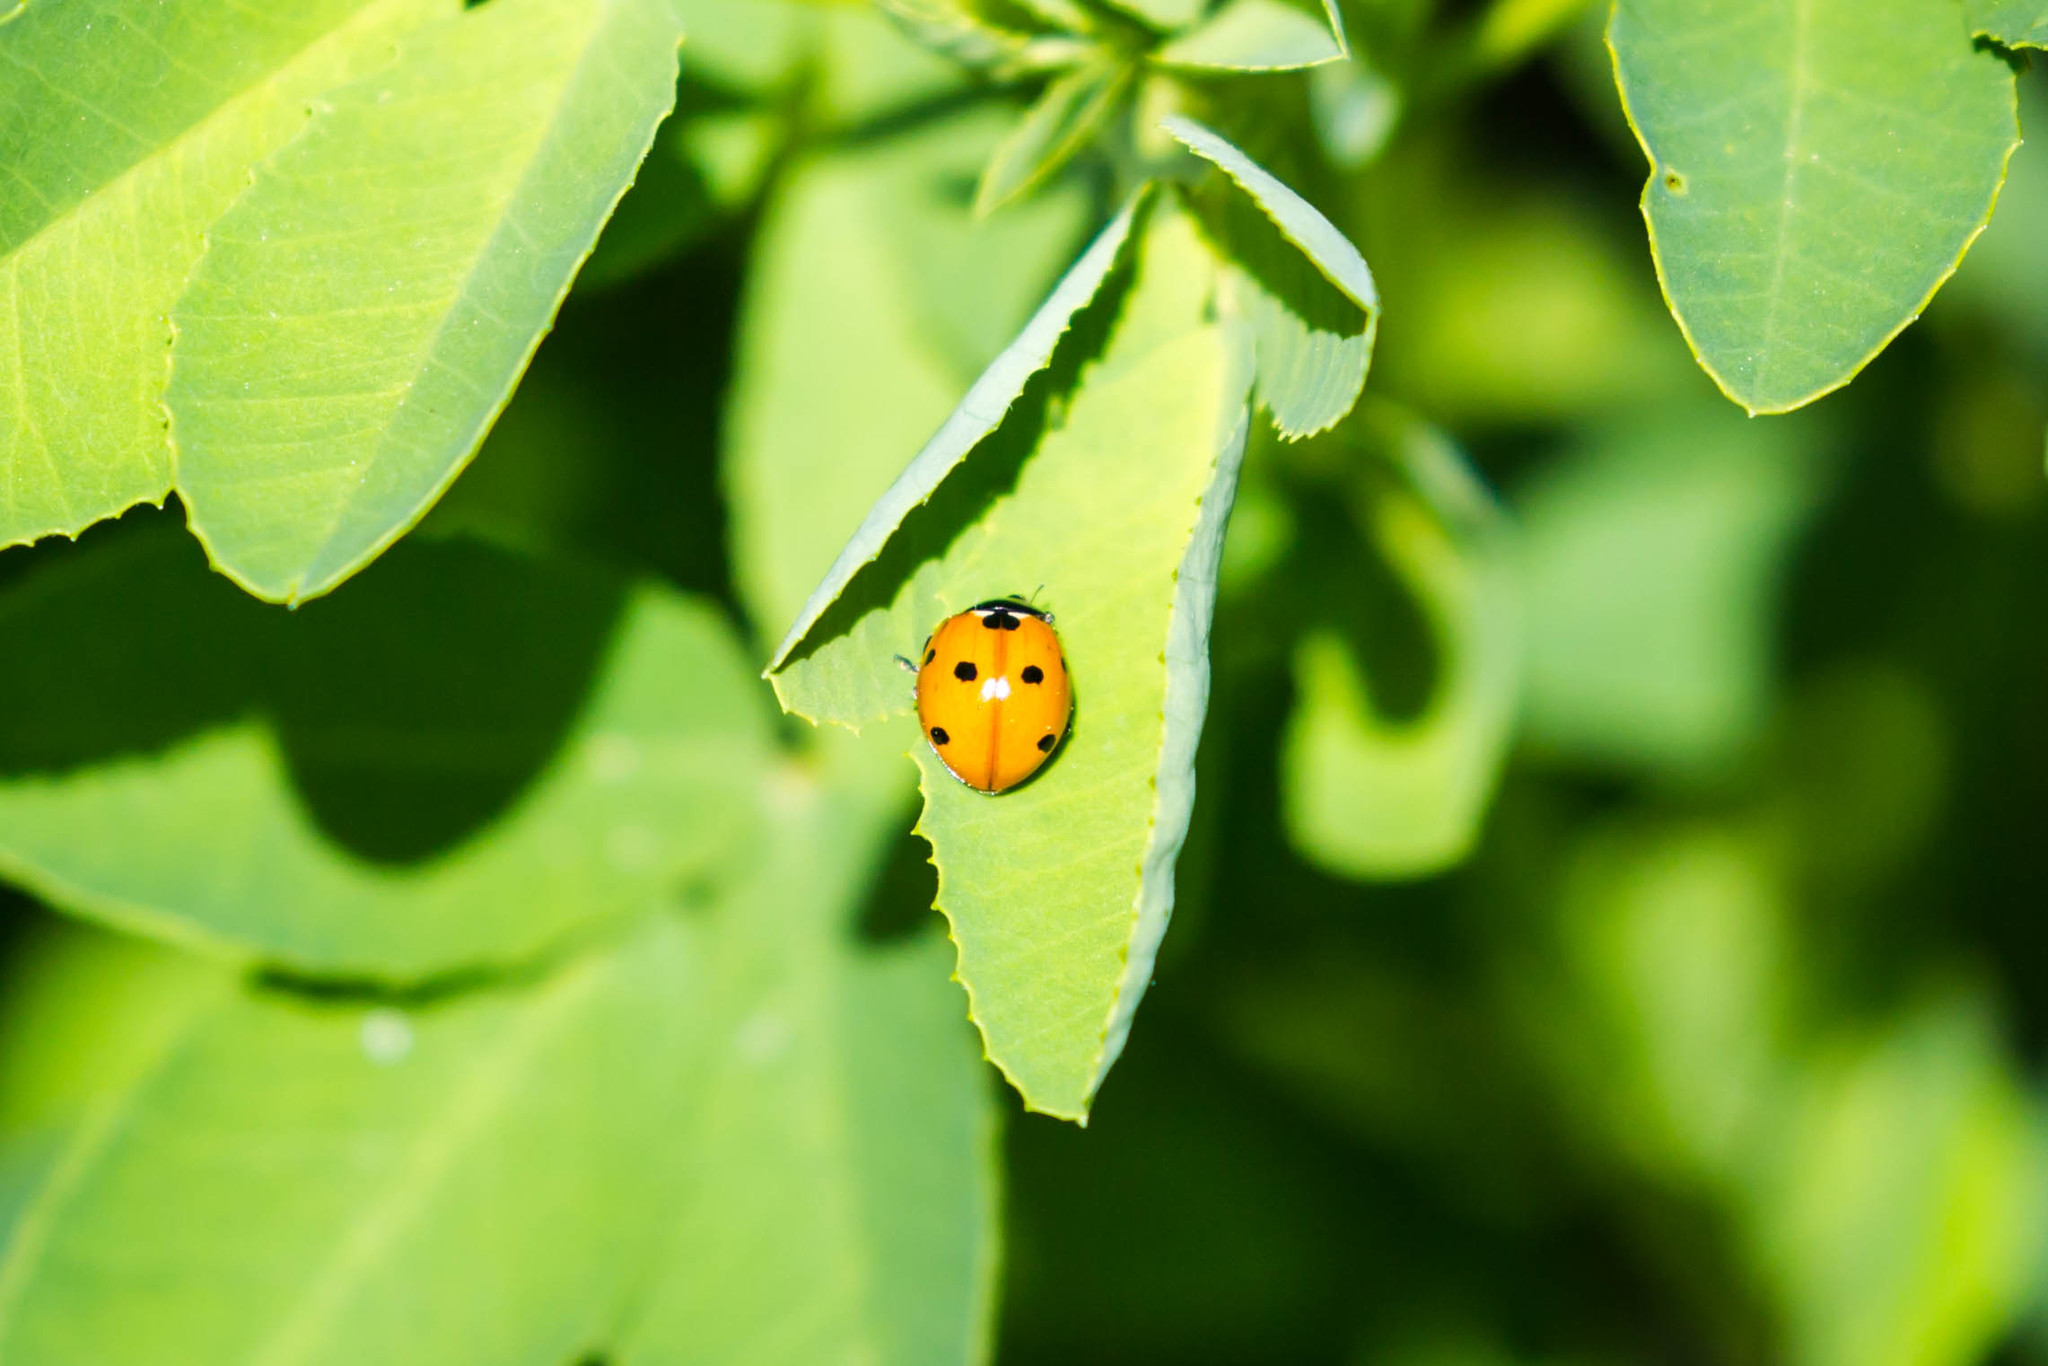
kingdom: Animalia
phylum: Arthropoda
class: Insecta
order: Coleoptera
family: Coccinellidae
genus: Coccinella
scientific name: Coccinella septempunctata
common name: Sevenspotted lady beetle
